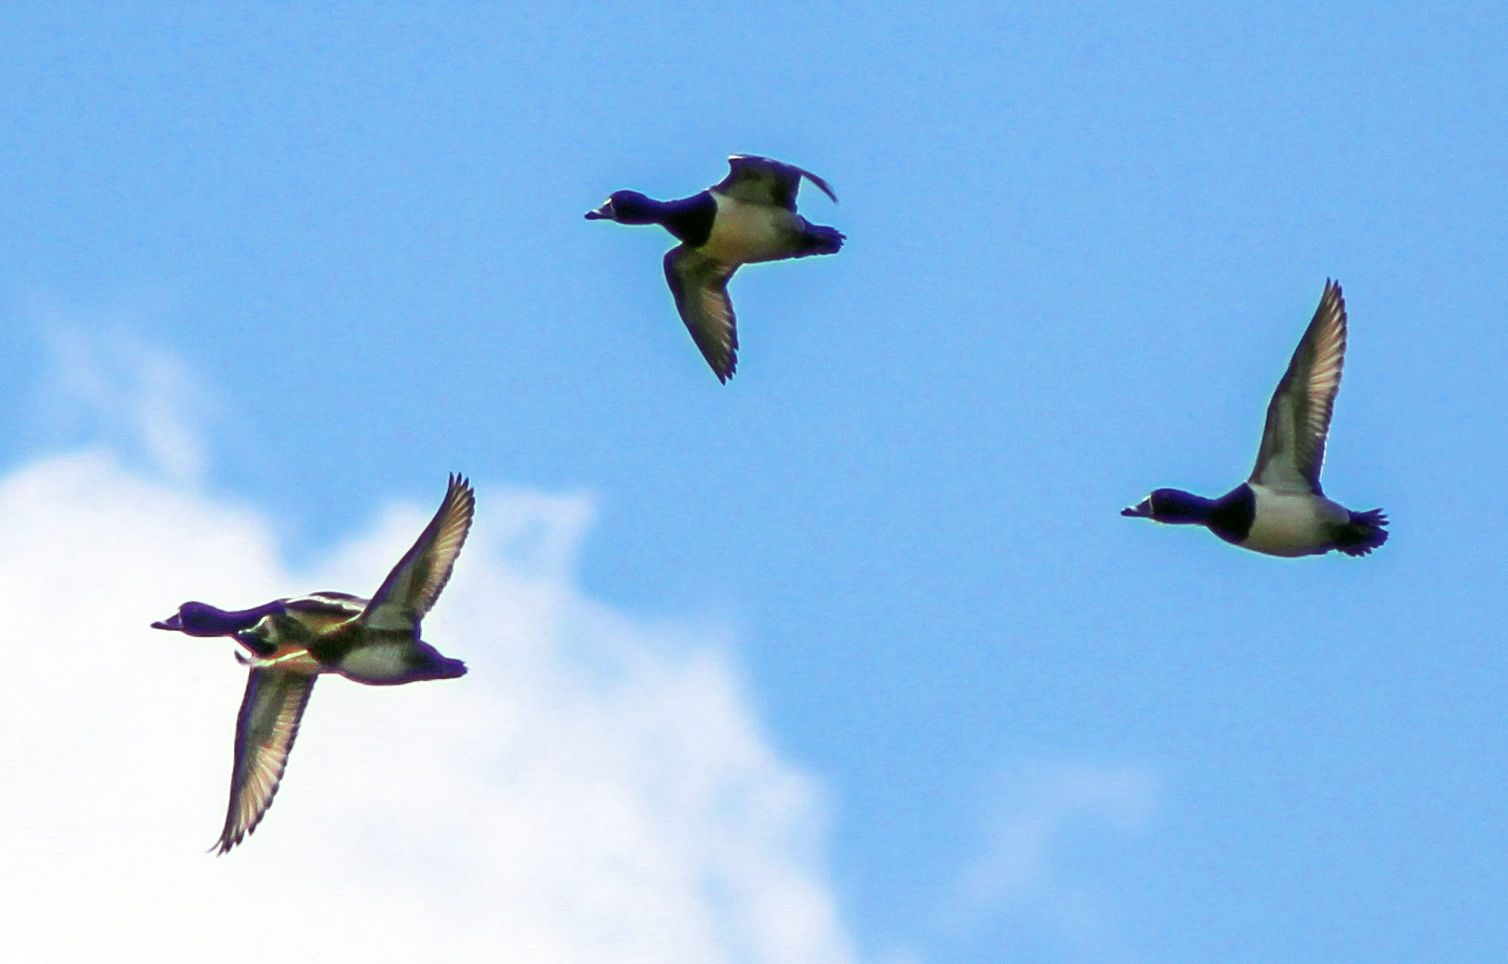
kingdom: Animalia
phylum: Chordata
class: Aves
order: Anseriformes
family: Anatidae
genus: Aythya
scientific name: Aythya collaris
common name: Ring-necked duck
